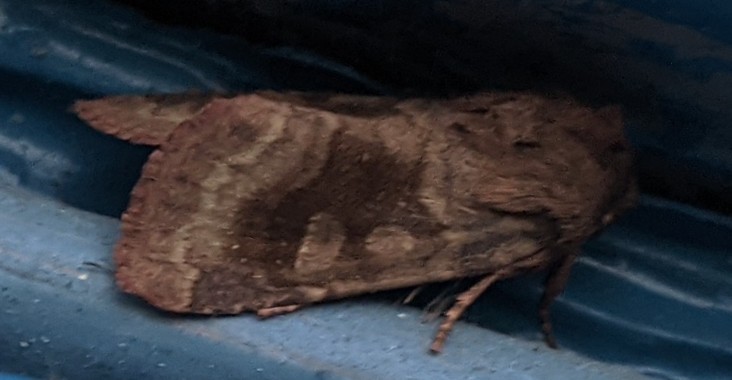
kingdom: Animalia
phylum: Arthropoda
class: Insecta
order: Lepidoptera
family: Noctuidae
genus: Nephelodes
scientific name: Nephelodes minians
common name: Bronzed cutworm
